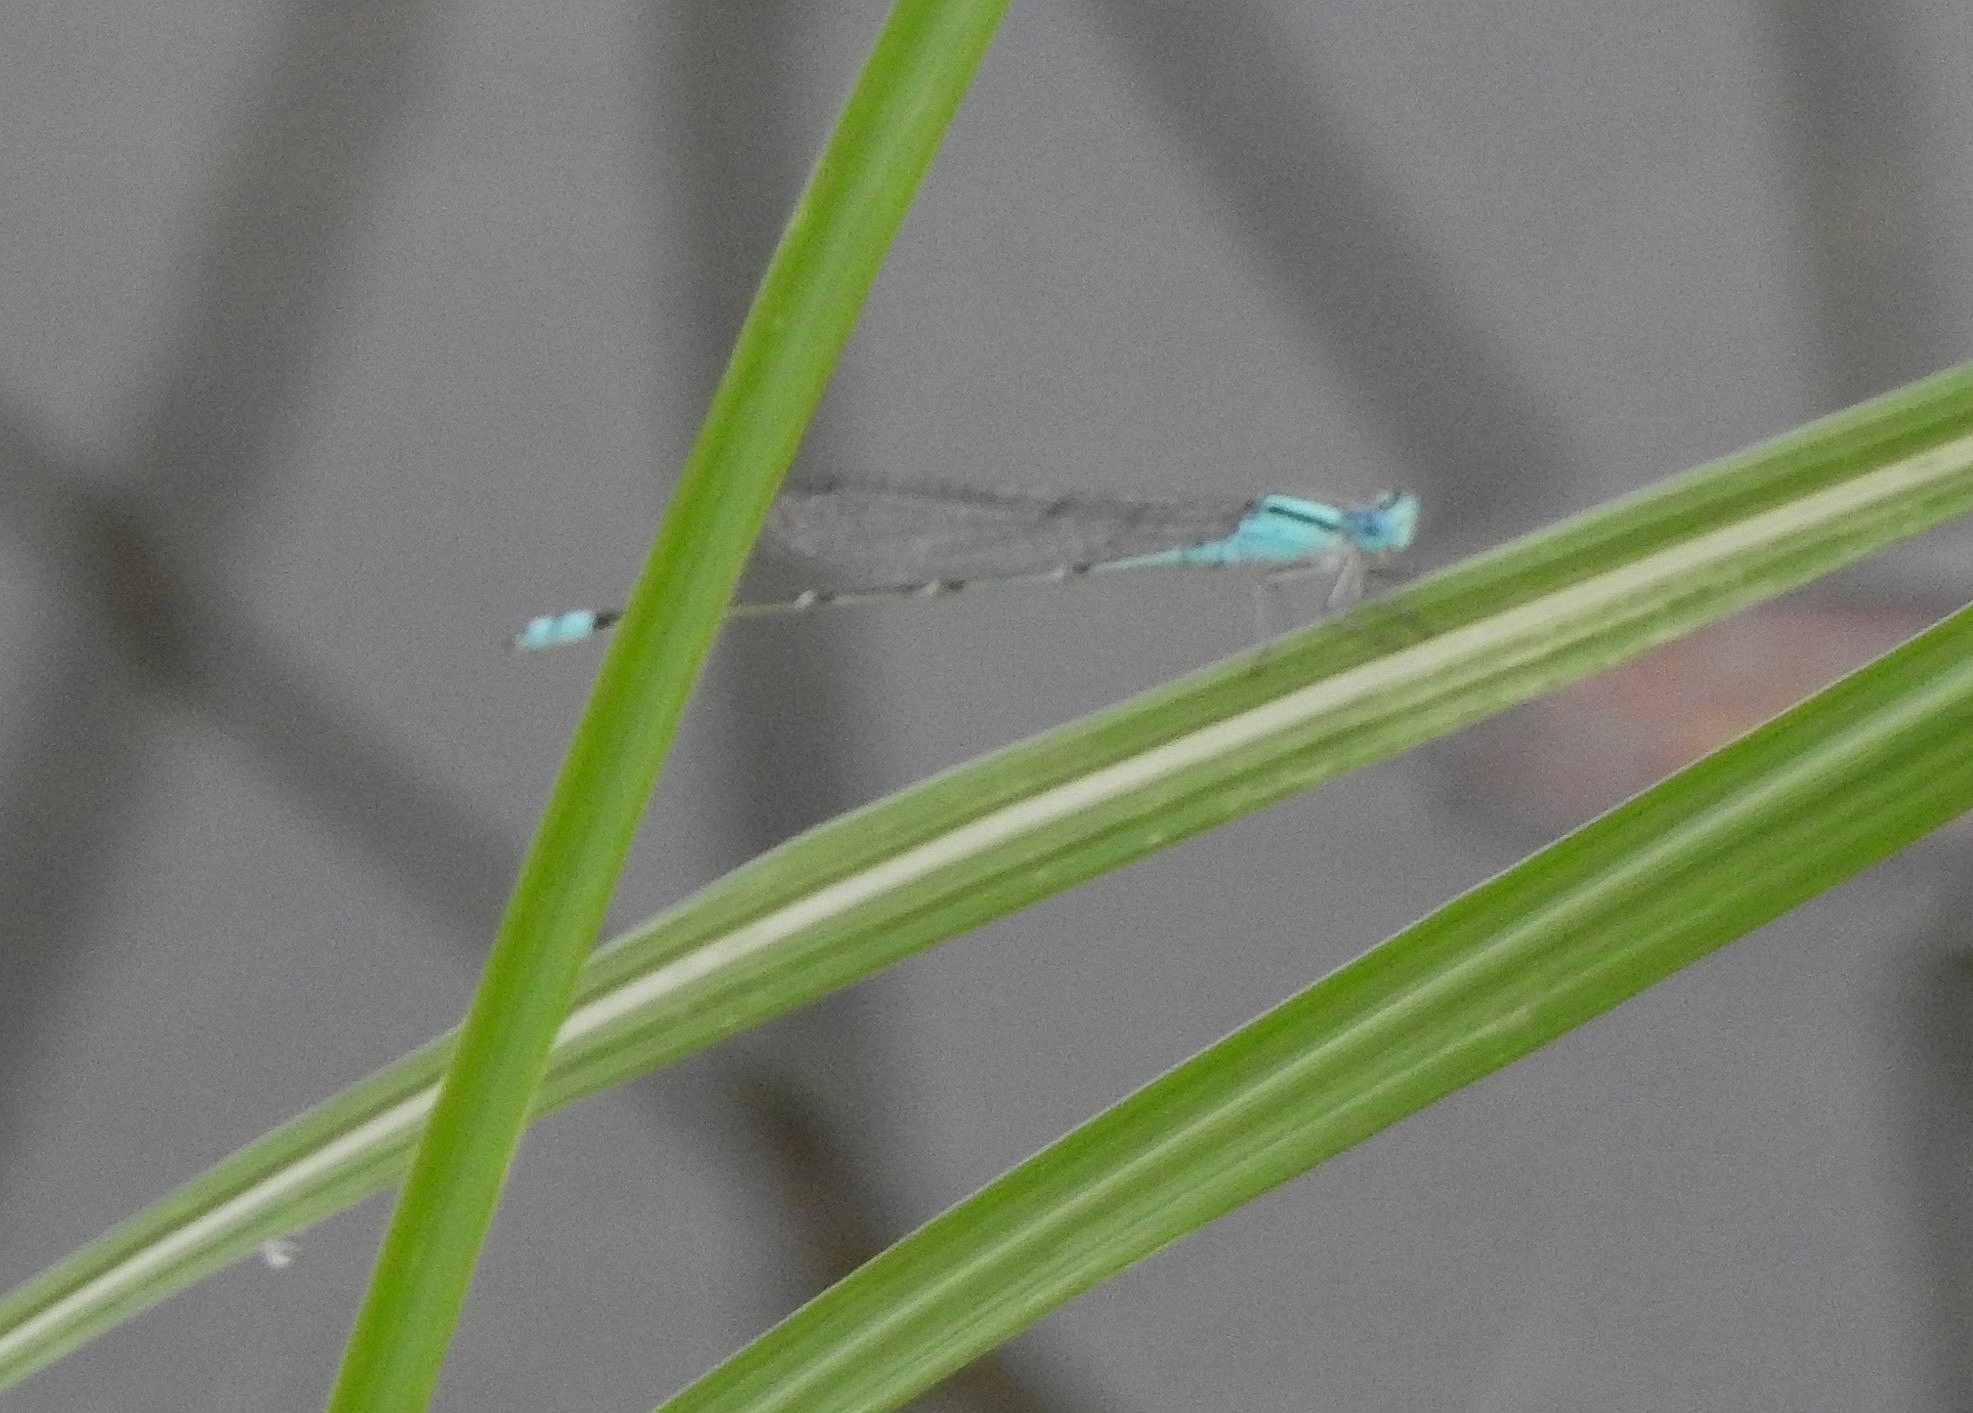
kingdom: Animalia
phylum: Arthropoda
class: Insecta
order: Odonata
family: Coenagrionidae
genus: Pseudagrion
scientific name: Pseudagrion microcephalum
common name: Blue riverdamsel
